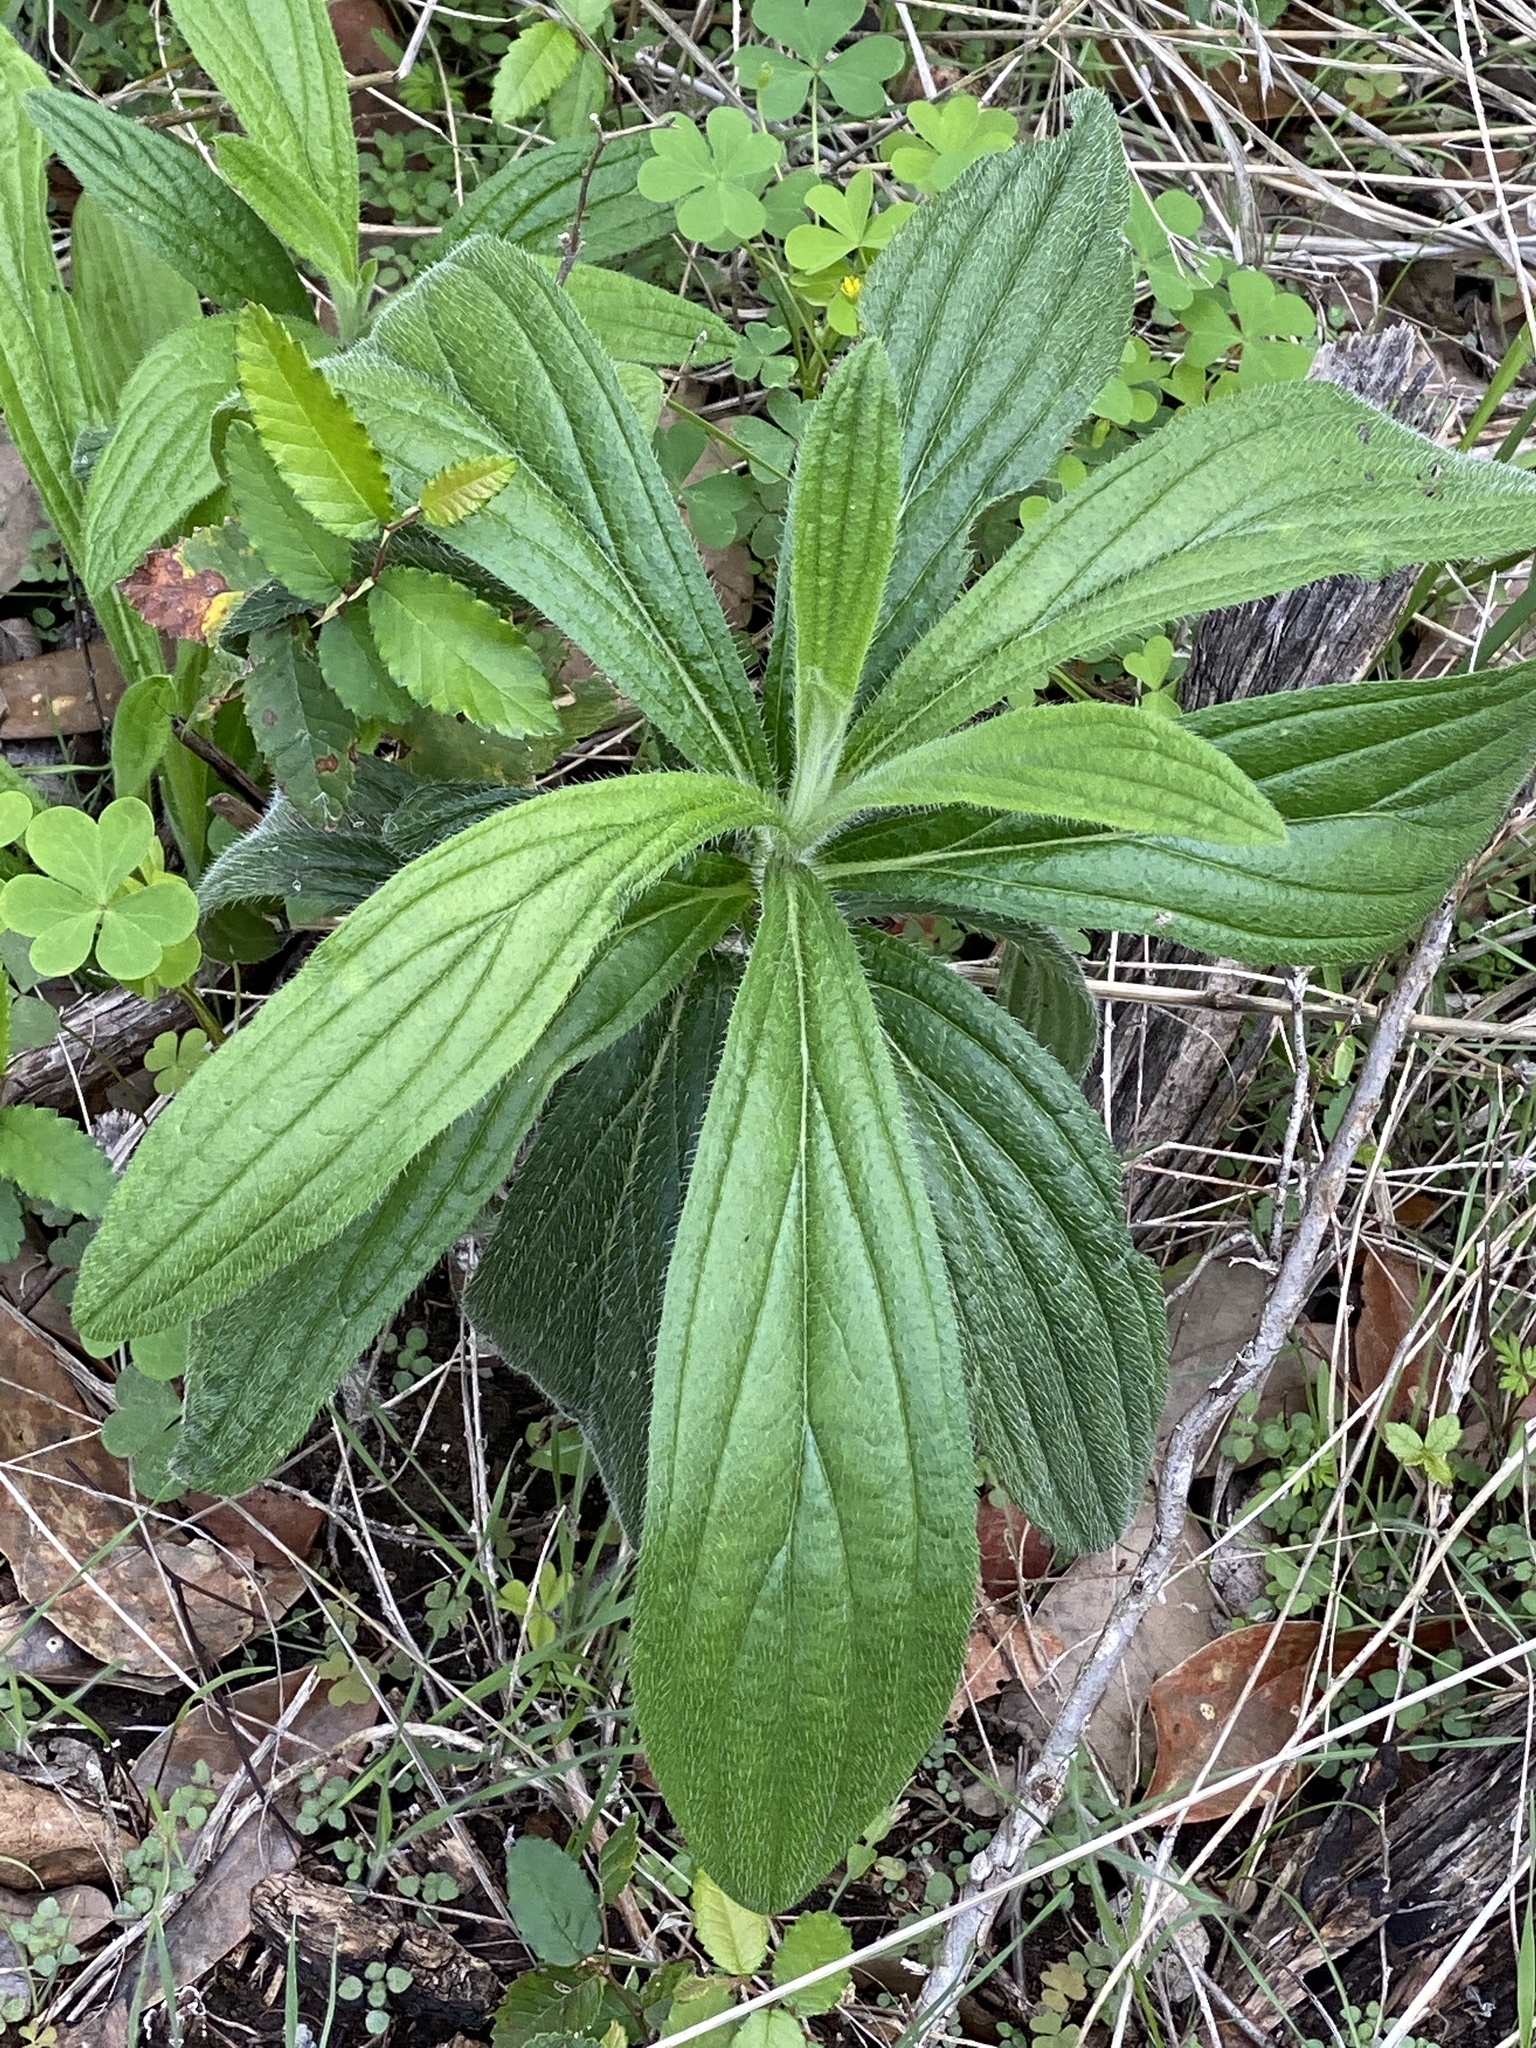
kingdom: Plantae
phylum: Tracheophyta
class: Magnoliopsida
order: Boraginales
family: Boraginaceae
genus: Lithospermum
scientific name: Lithospermum caroliniense
